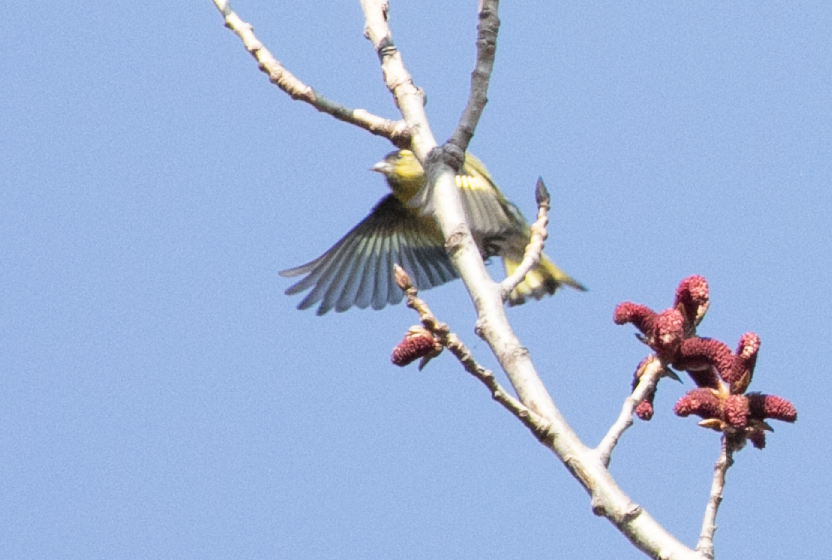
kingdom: Animalia
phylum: Chordata
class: Aves
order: Passeriformes
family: Fringillidae
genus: Spinus
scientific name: Spinus spinus
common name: Eurasian siskin
